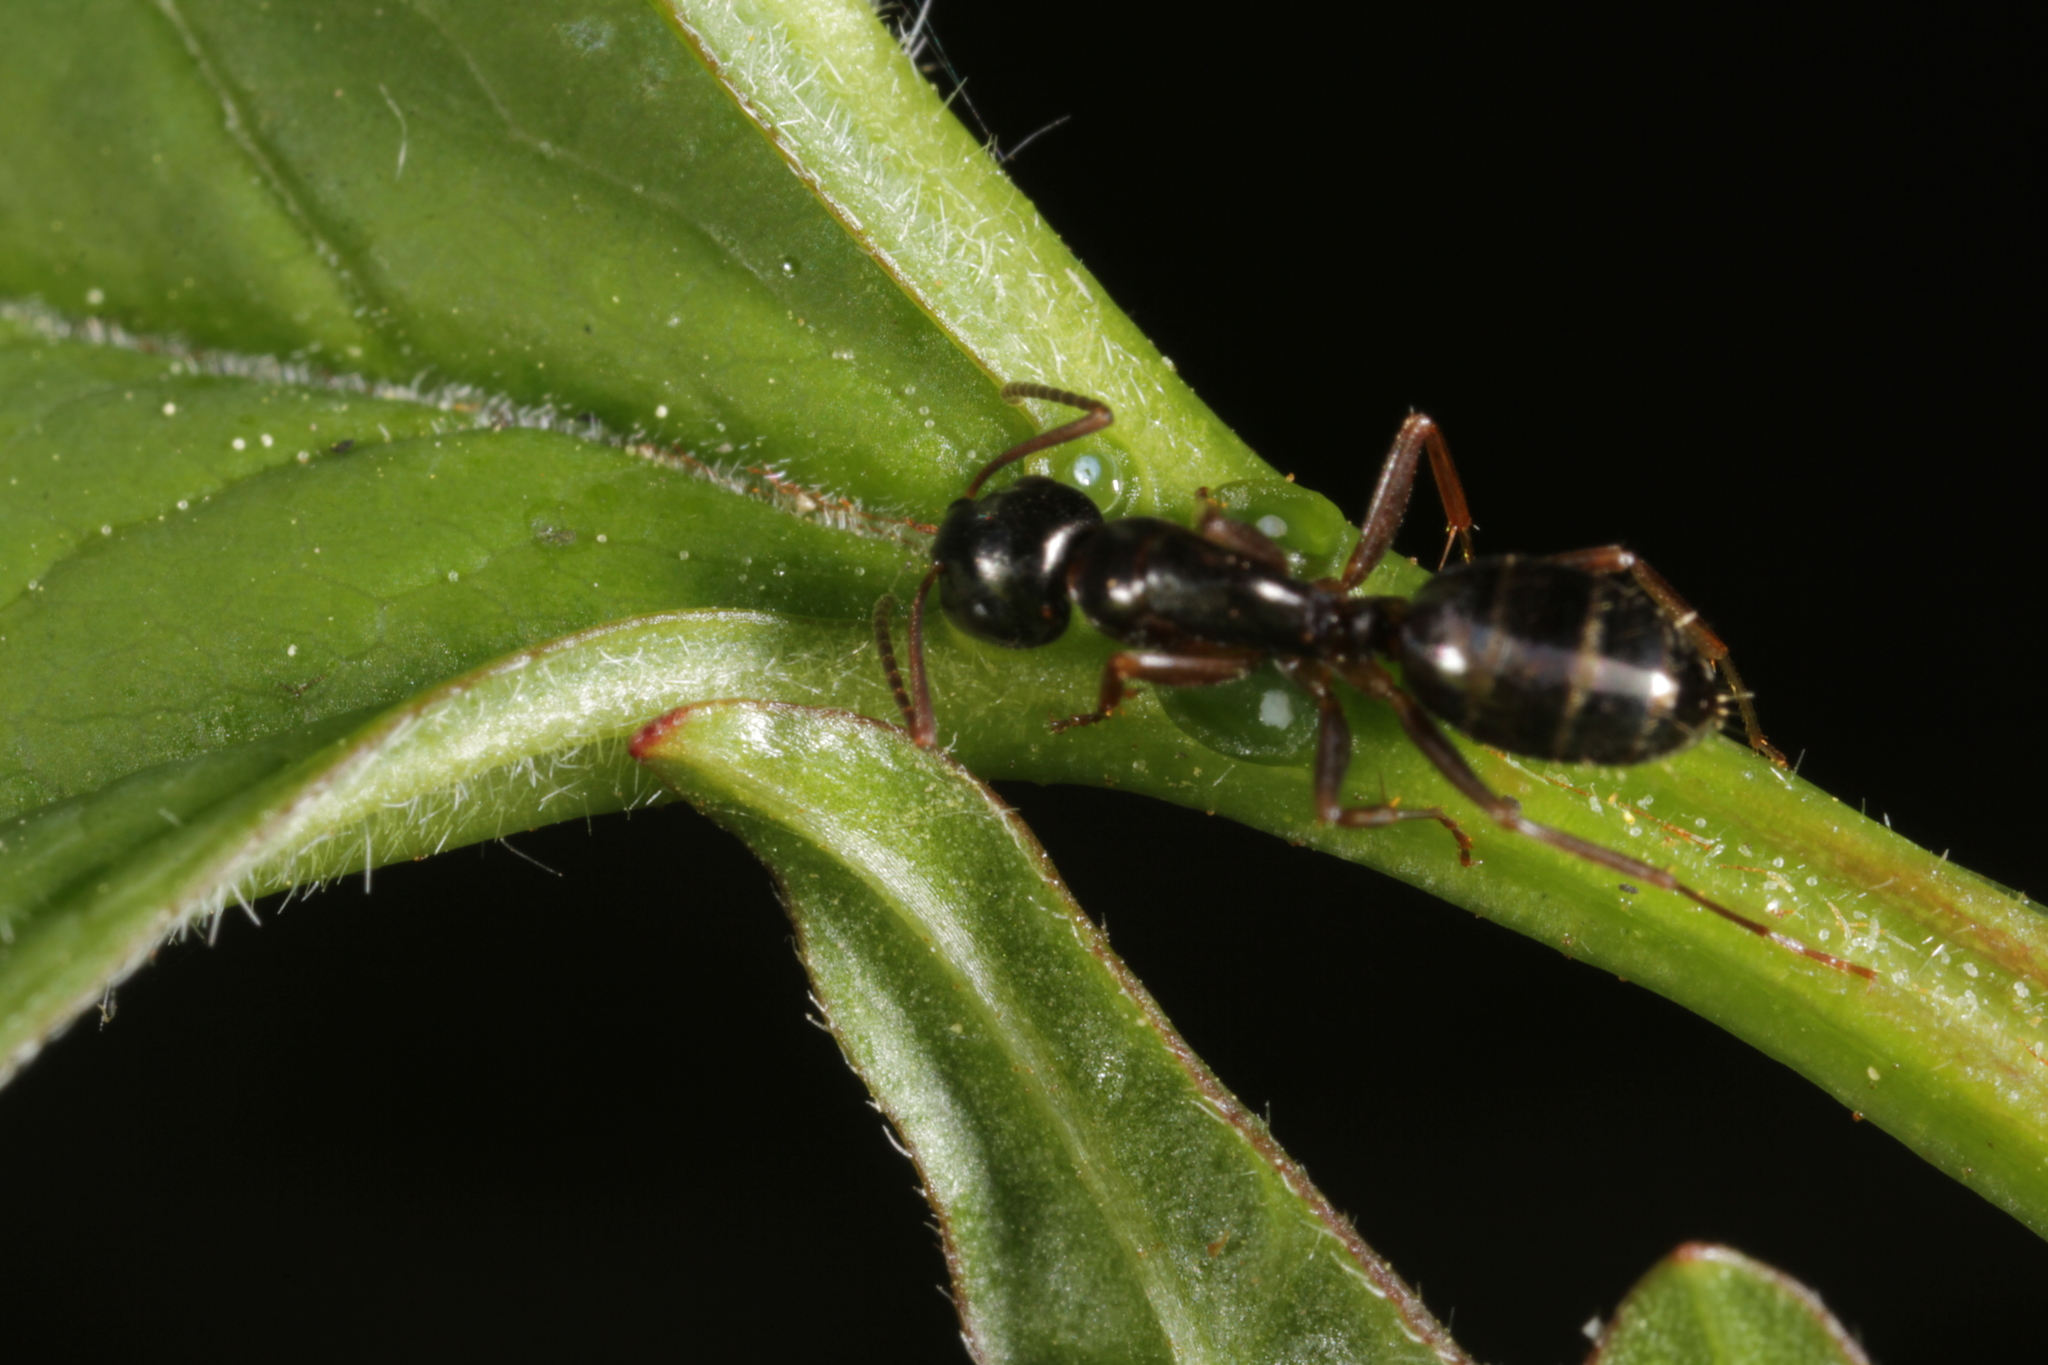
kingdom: Animalia
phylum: Arthropoda
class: Insecta
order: Hymenoptera
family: Formicidae
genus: Camponotus
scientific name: Camponotus fallax
